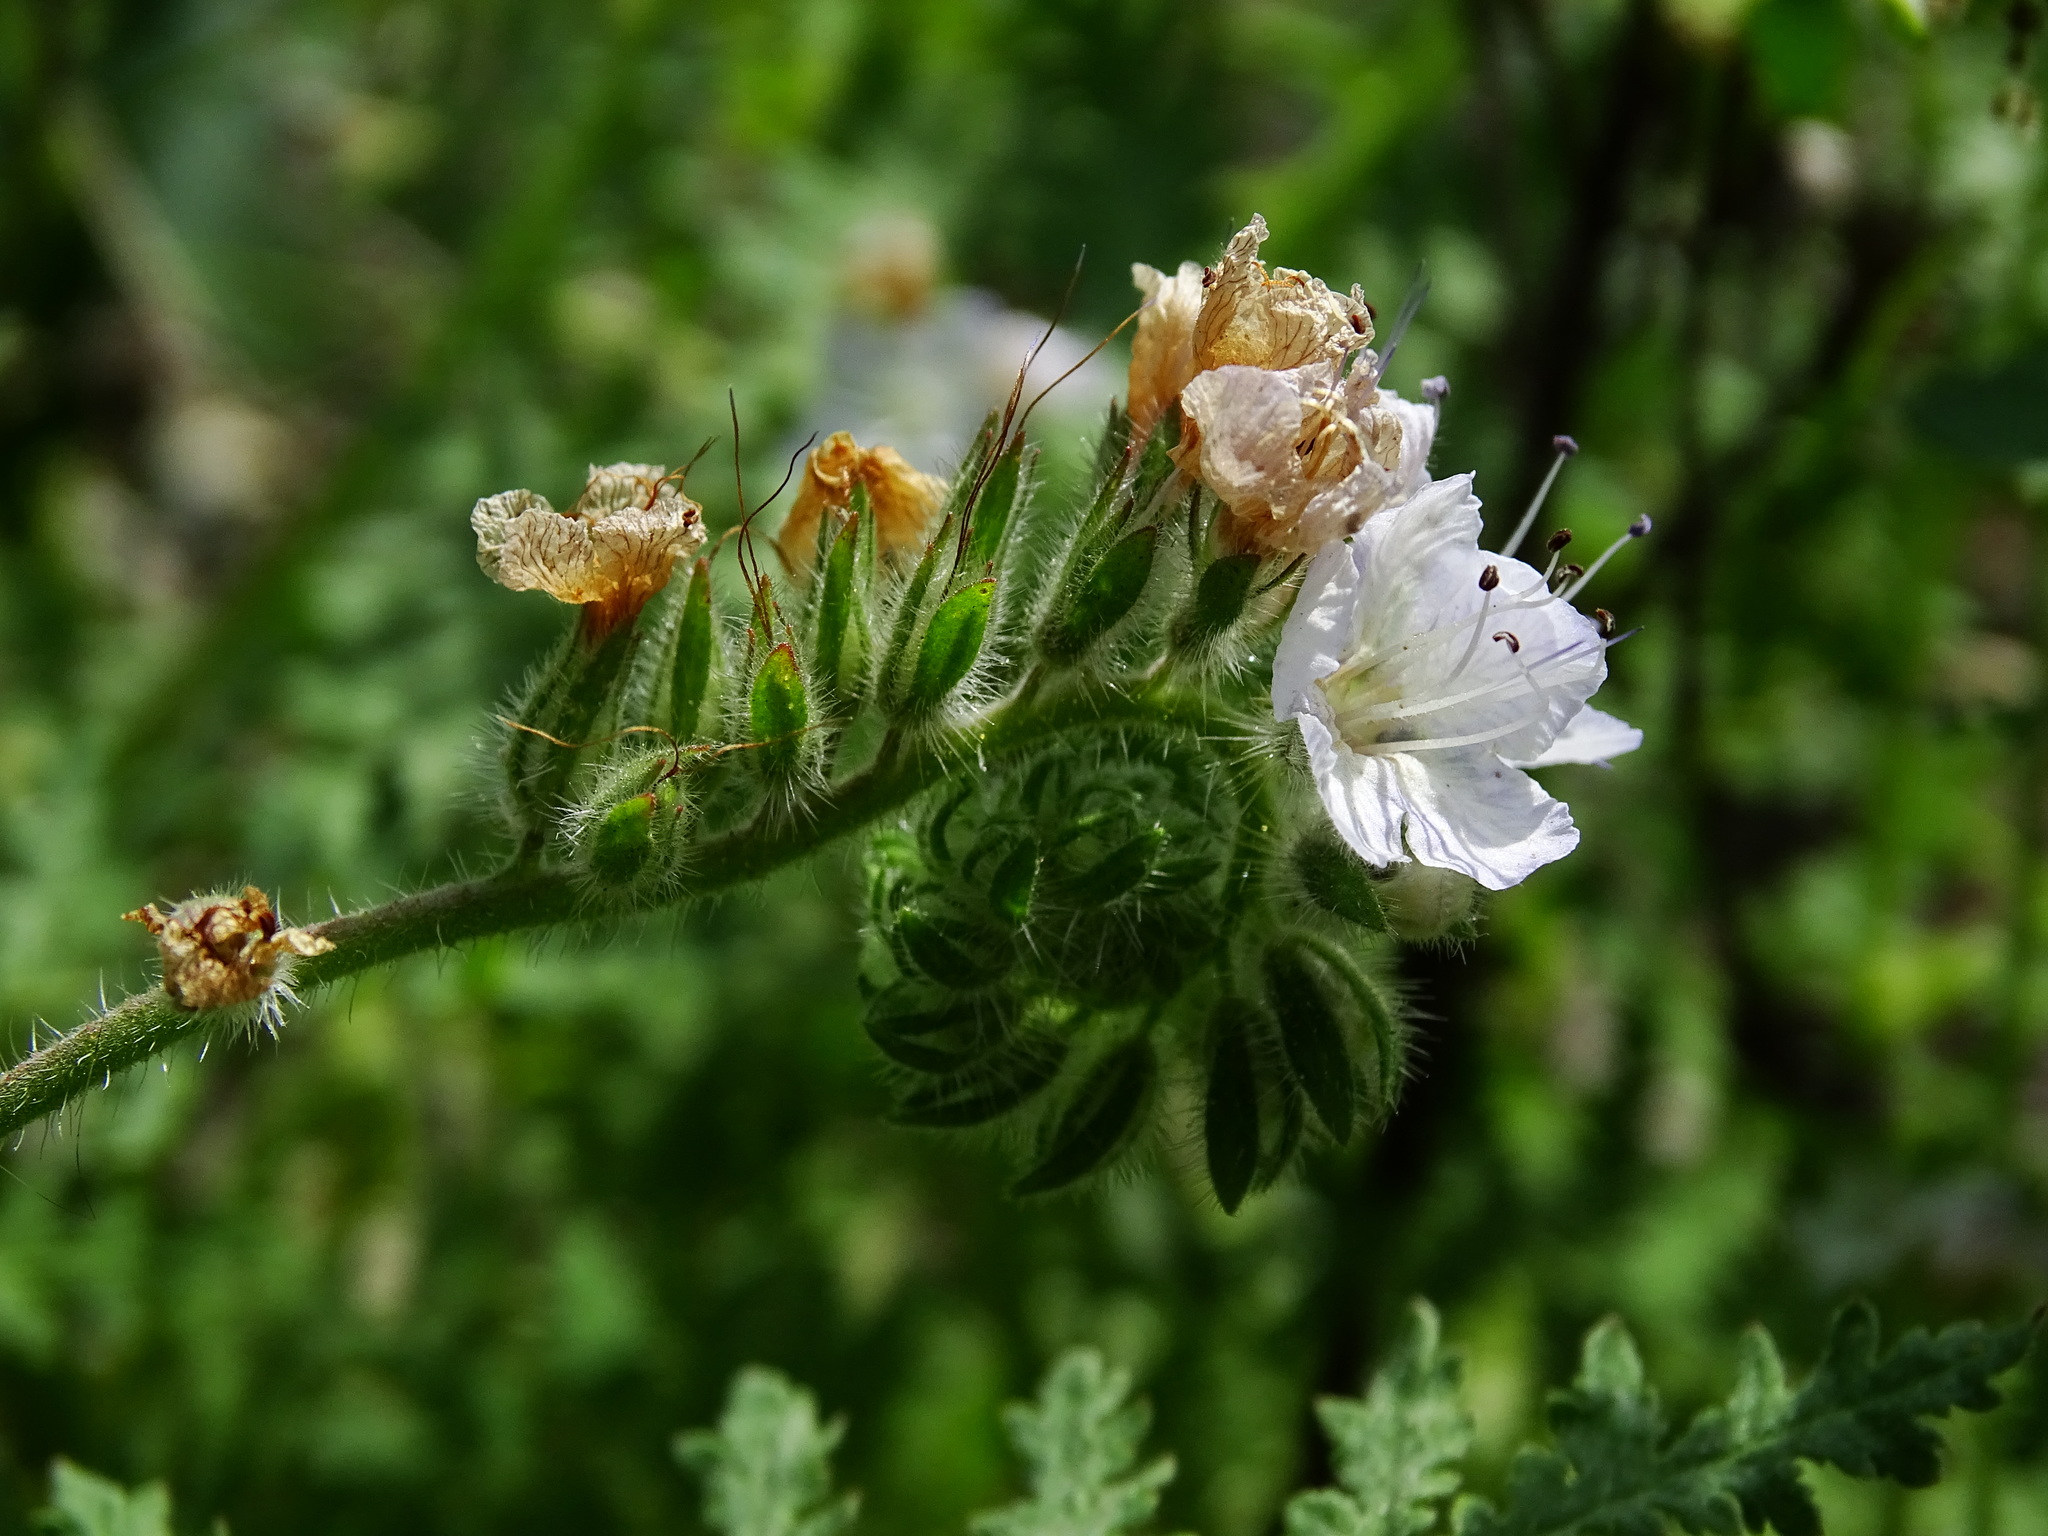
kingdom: Plantae
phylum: Tracheophyta
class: Magnoliopsida
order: Boraginales
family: Hydrophyllaceae
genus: Phacelia
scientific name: Phacelia cicutaria
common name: Caterpillar phacelia
